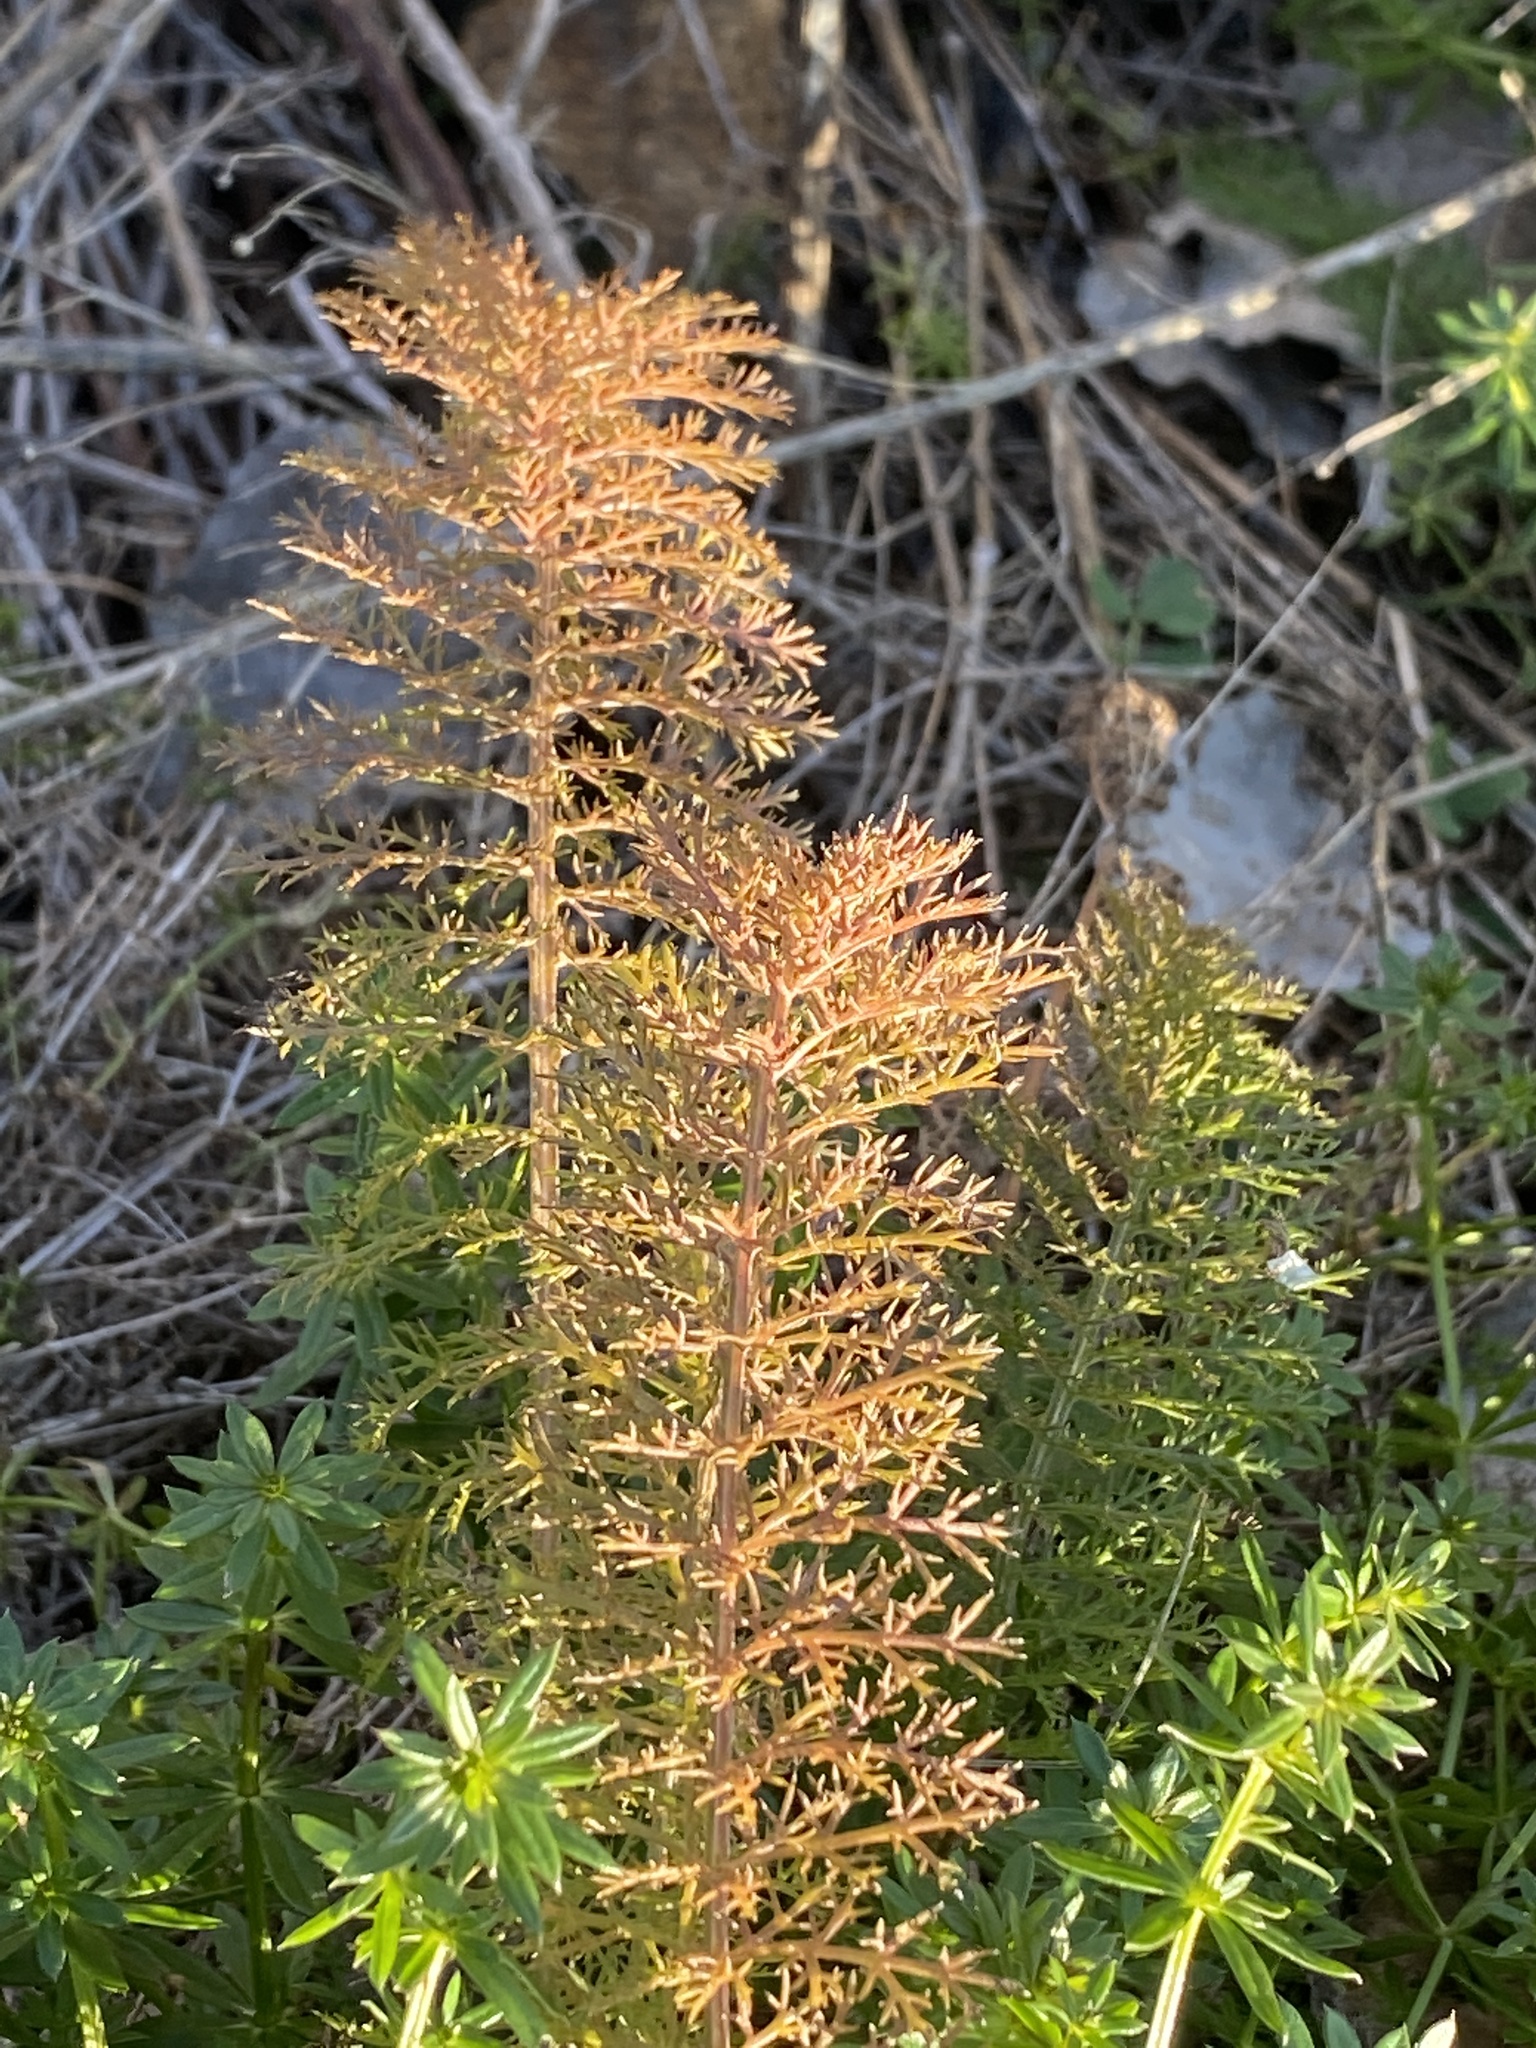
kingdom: Plantae
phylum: Tracheophyta
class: Magnoliopsida
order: Asterales
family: Asteraceae
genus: Achillea
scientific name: Achillea millefolium
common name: Yarrow
